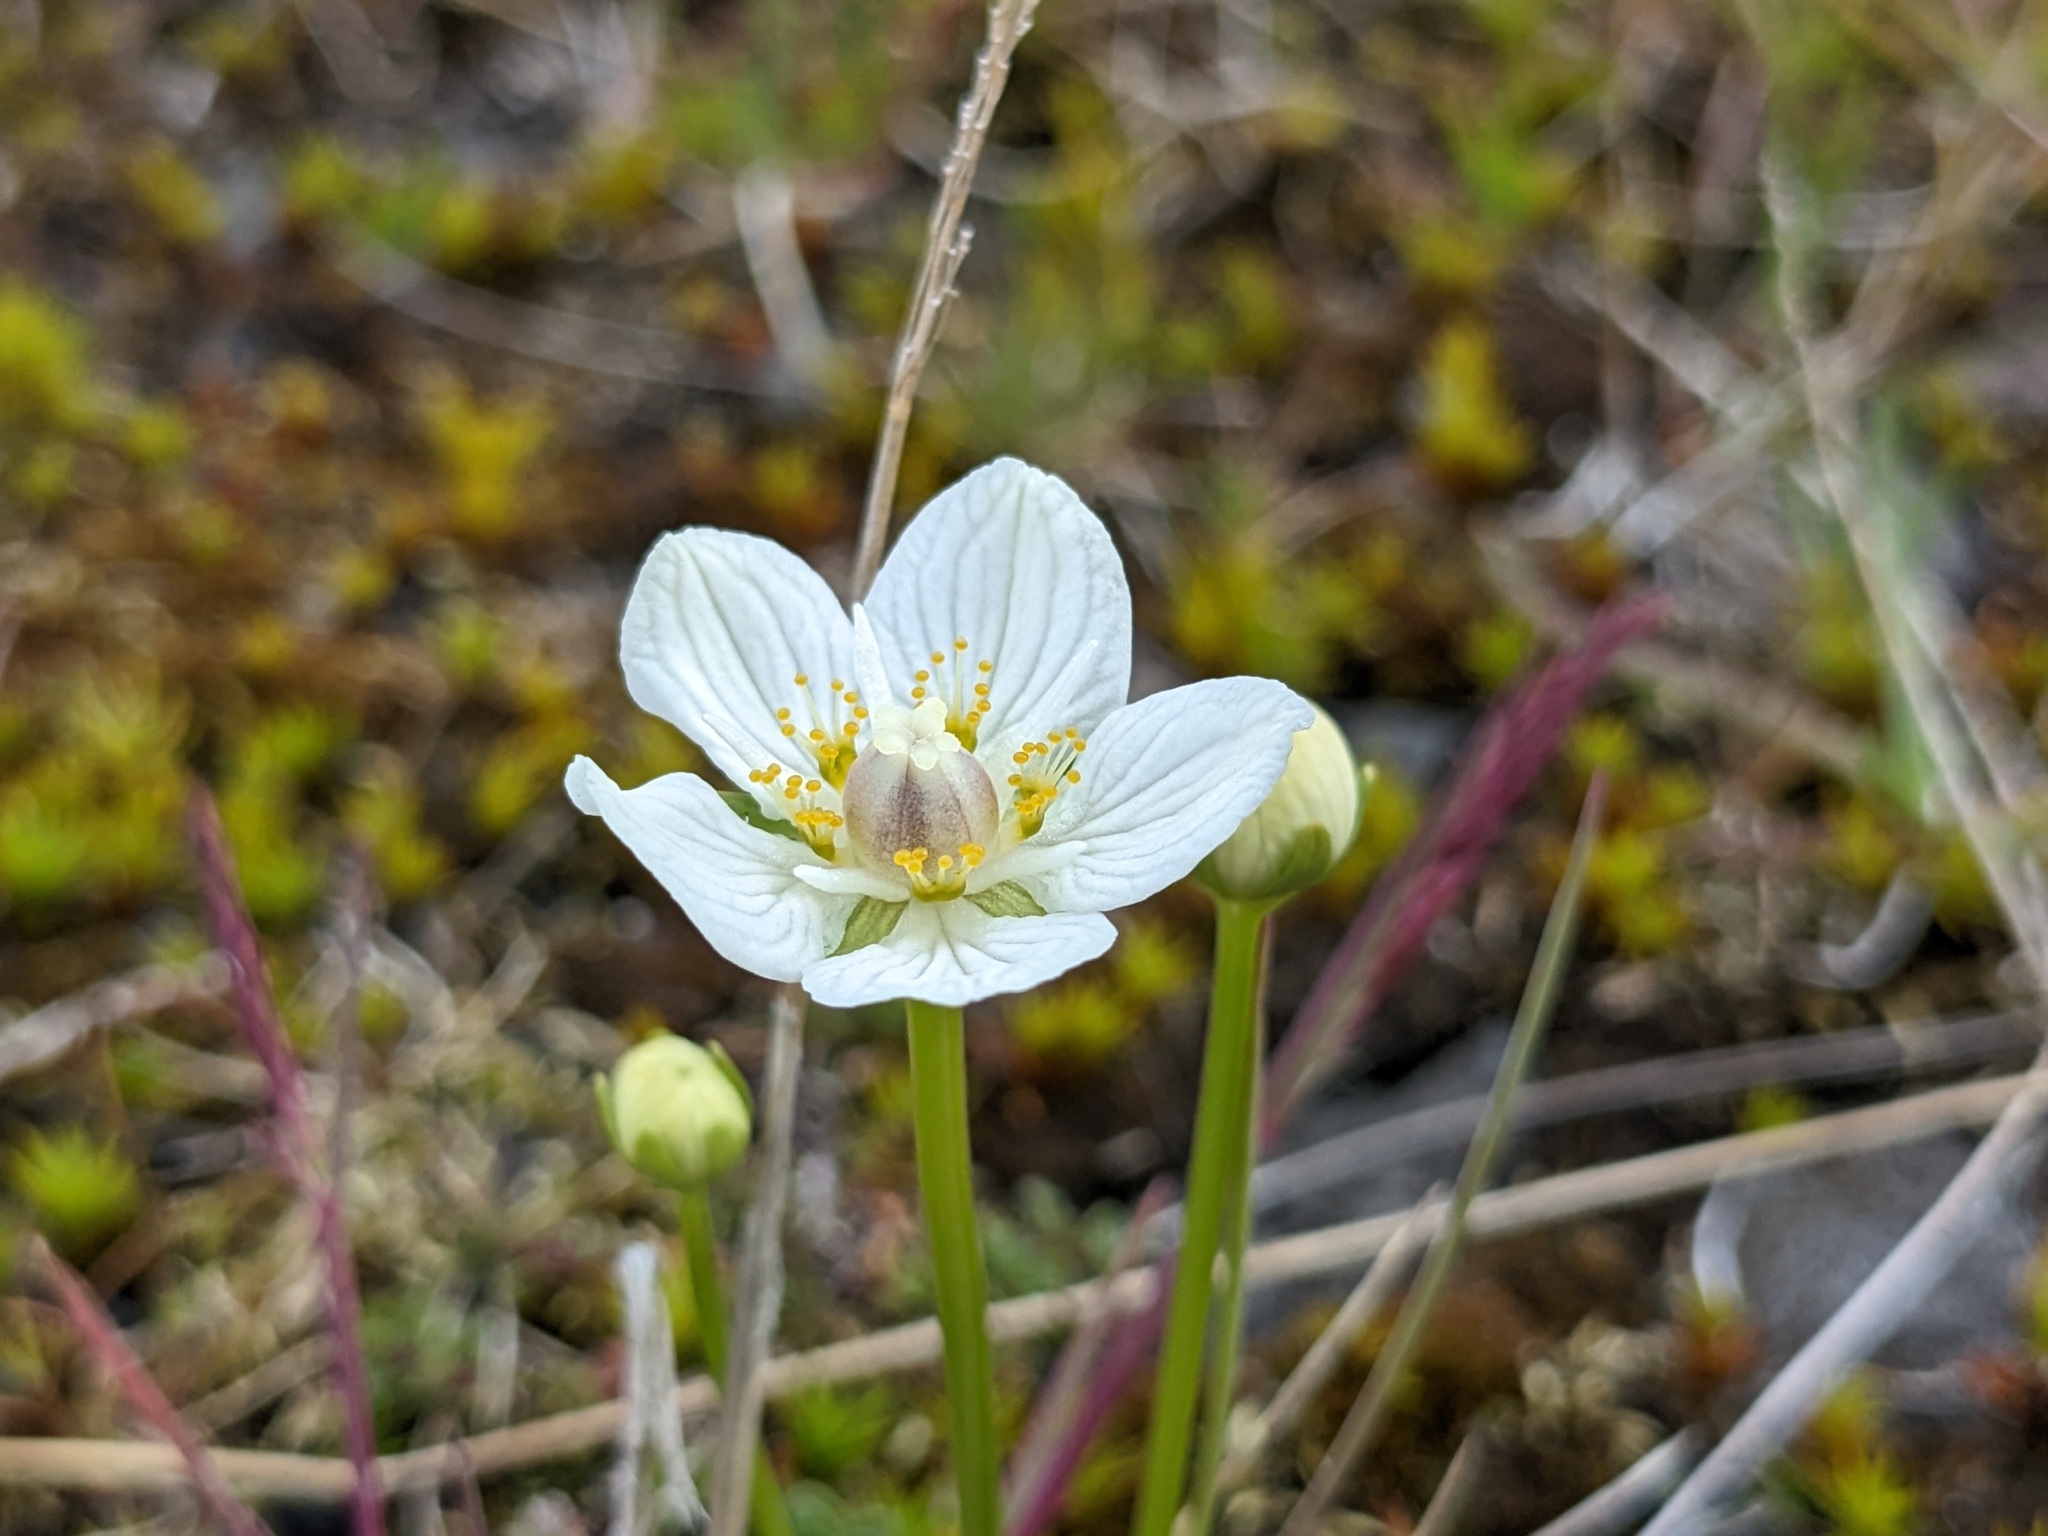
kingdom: Plantae
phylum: Tracheophyta
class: Magnoliopsida
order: Celastrales
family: Parnassiaceae
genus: Parnassia
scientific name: Parnassia palustris
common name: Grass-of-parnassus
